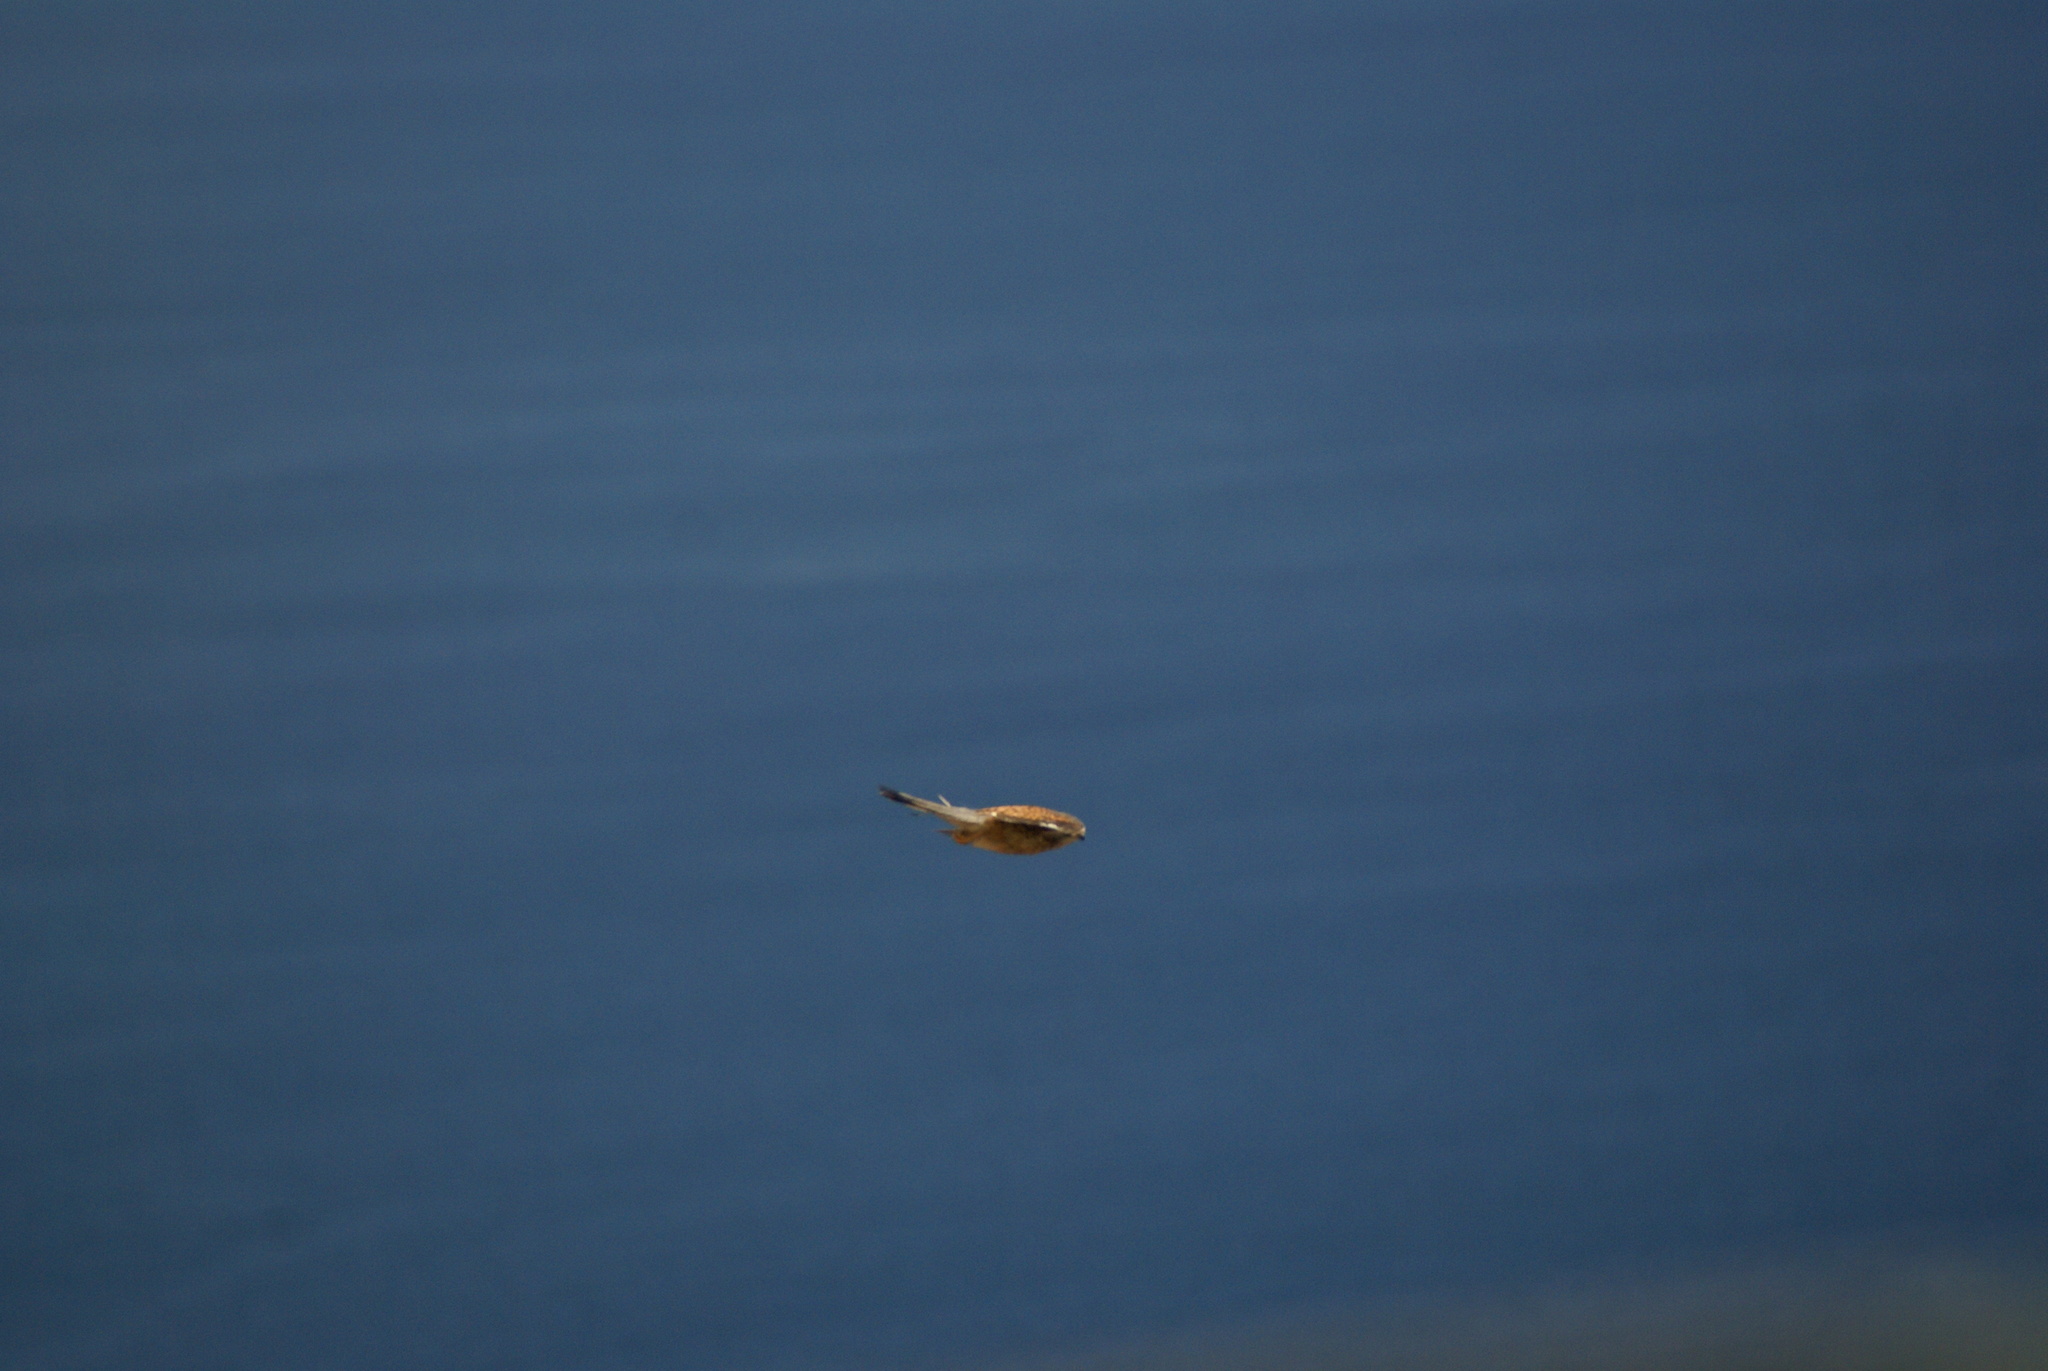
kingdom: Animalia
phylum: Chordata
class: Aves
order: Falconiformes
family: Falconidae
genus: Falco
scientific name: Falco tinnunculus
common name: Common kestrel
